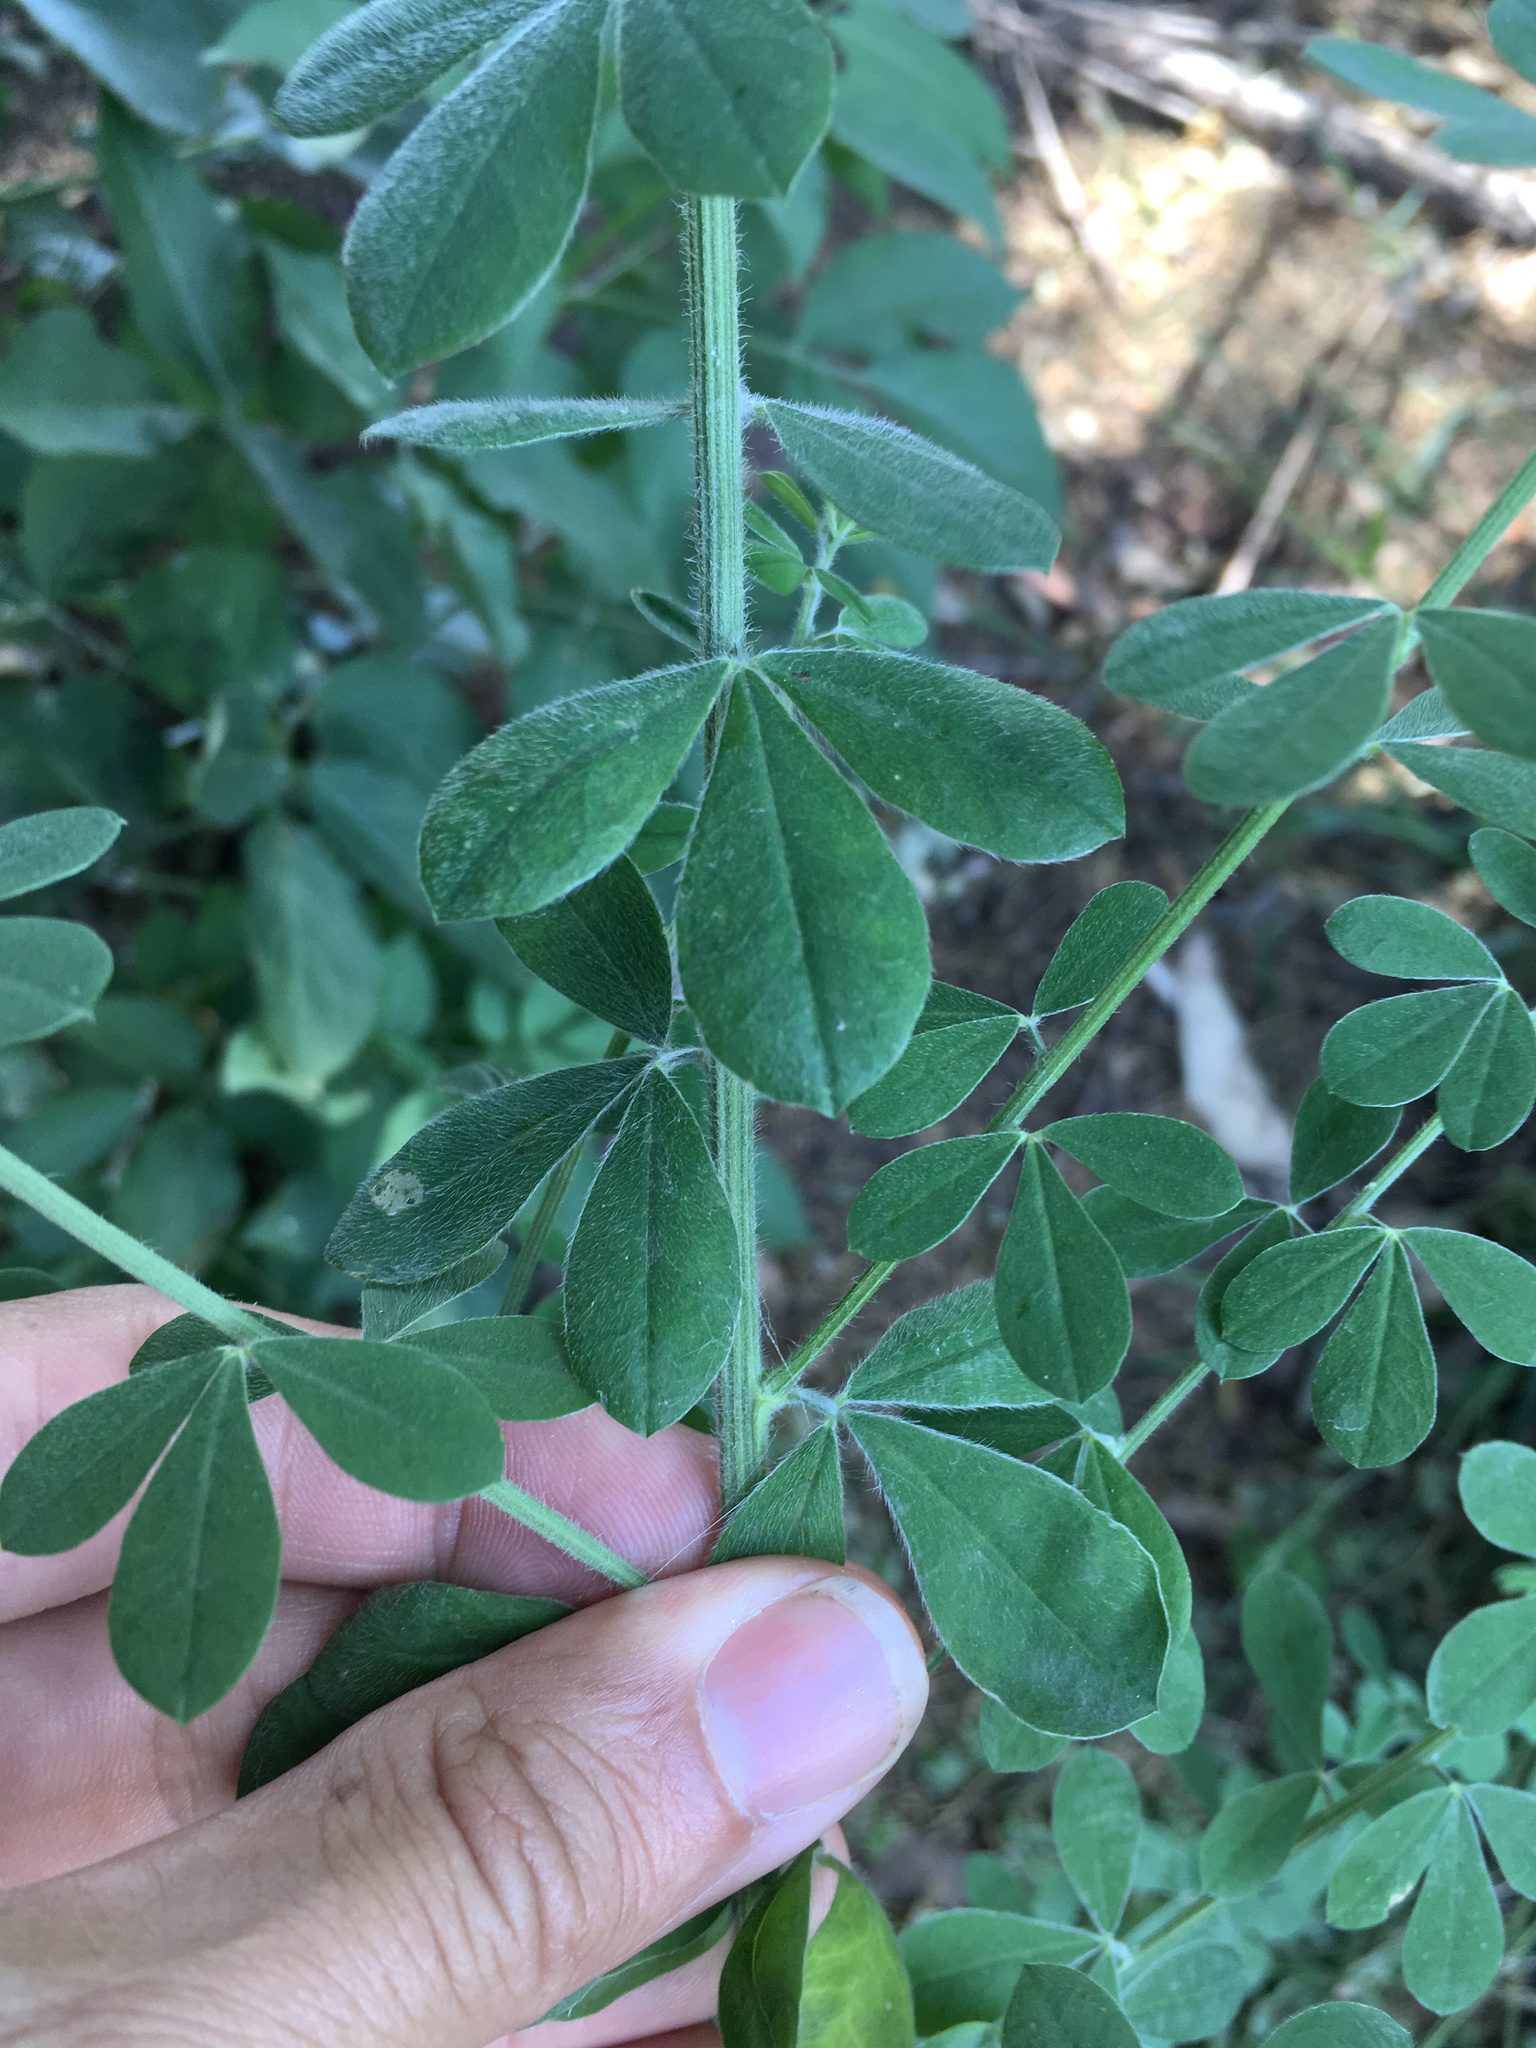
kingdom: Plantae
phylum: Tracheophyta
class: Magnoliopsida
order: Fabales
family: Fabaceae
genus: Chamaecytisus
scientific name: Chamaecytisus prolifer
